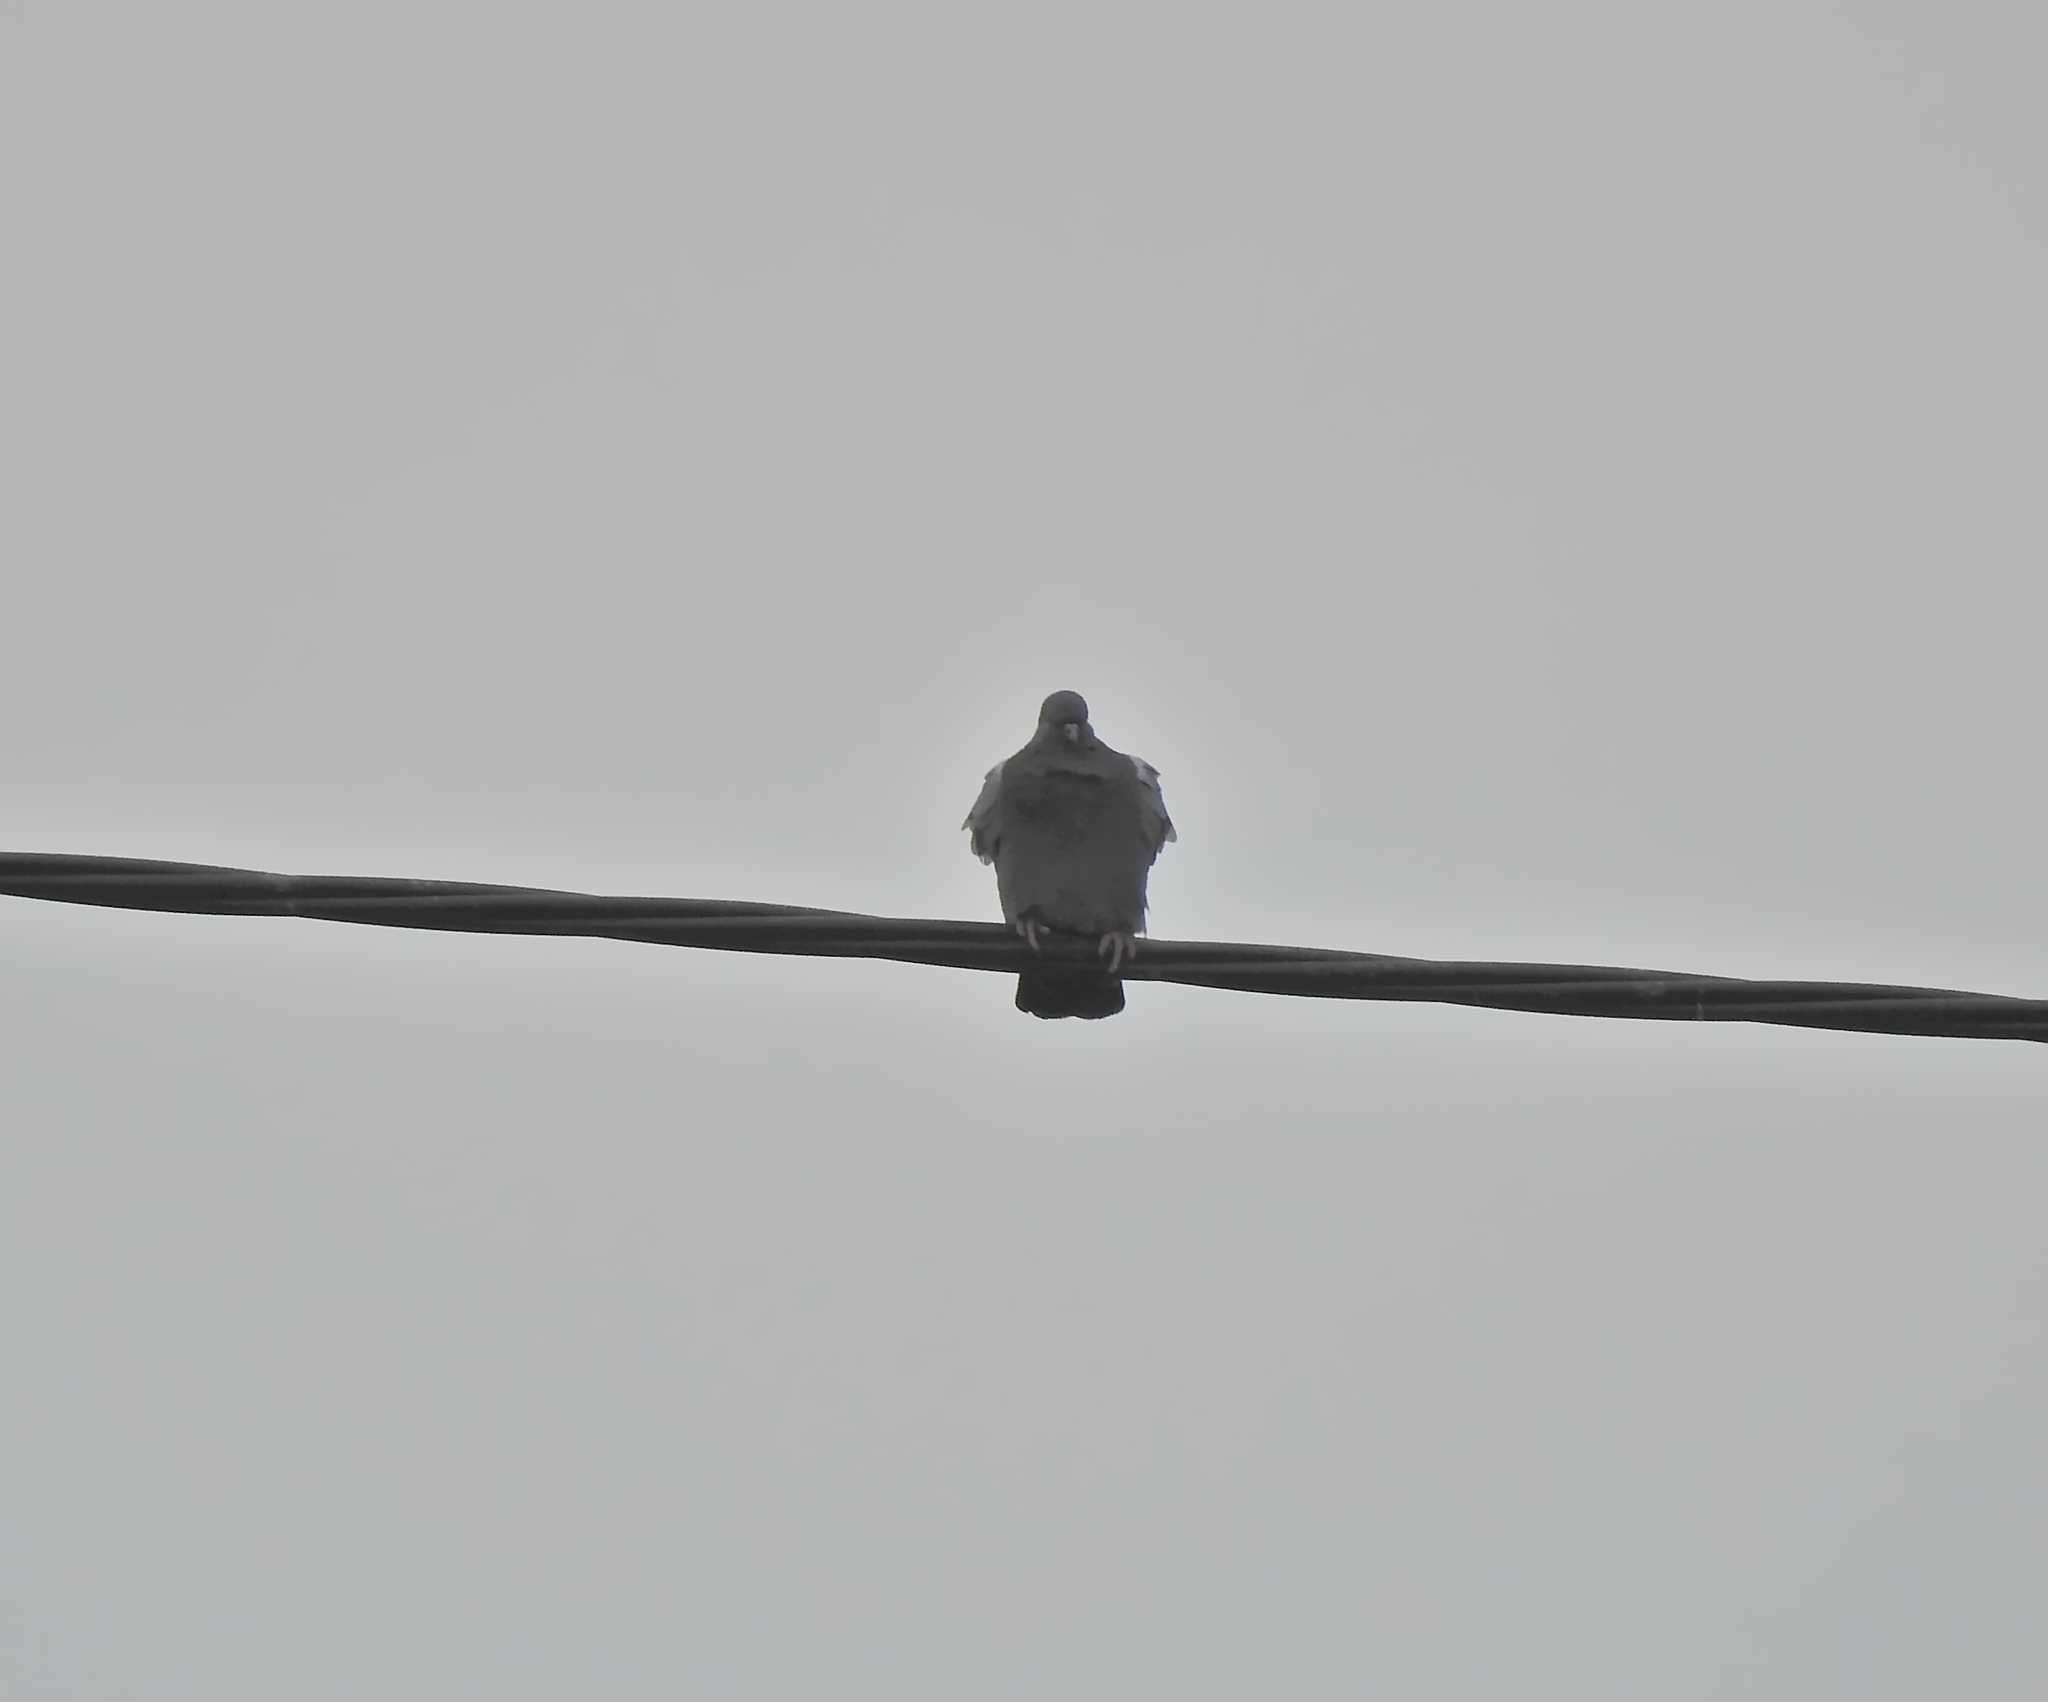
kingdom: Animalia
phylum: Chordata
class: Aves
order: Columbiformes
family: Columbidae
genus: Columba
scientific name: Columba livia
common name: Rock pigeon
